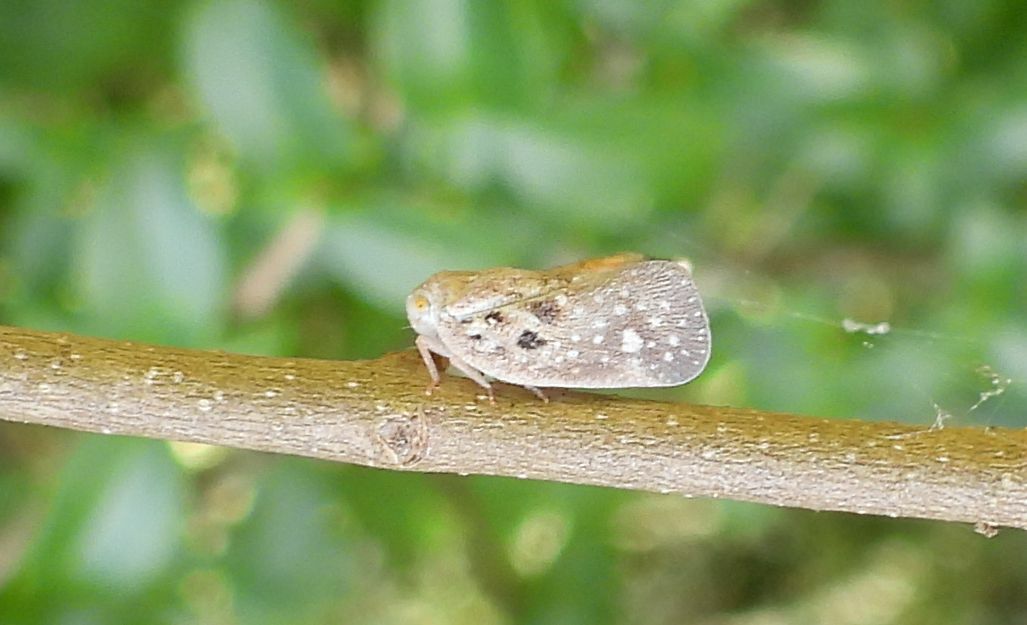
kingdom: Animalia
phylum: Arthropoda
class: Insecta
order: Hemiptera
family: Flatidae
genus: Metcalfa
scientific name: Metcalfa pruinosa
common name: Citrus flatid planthopper
